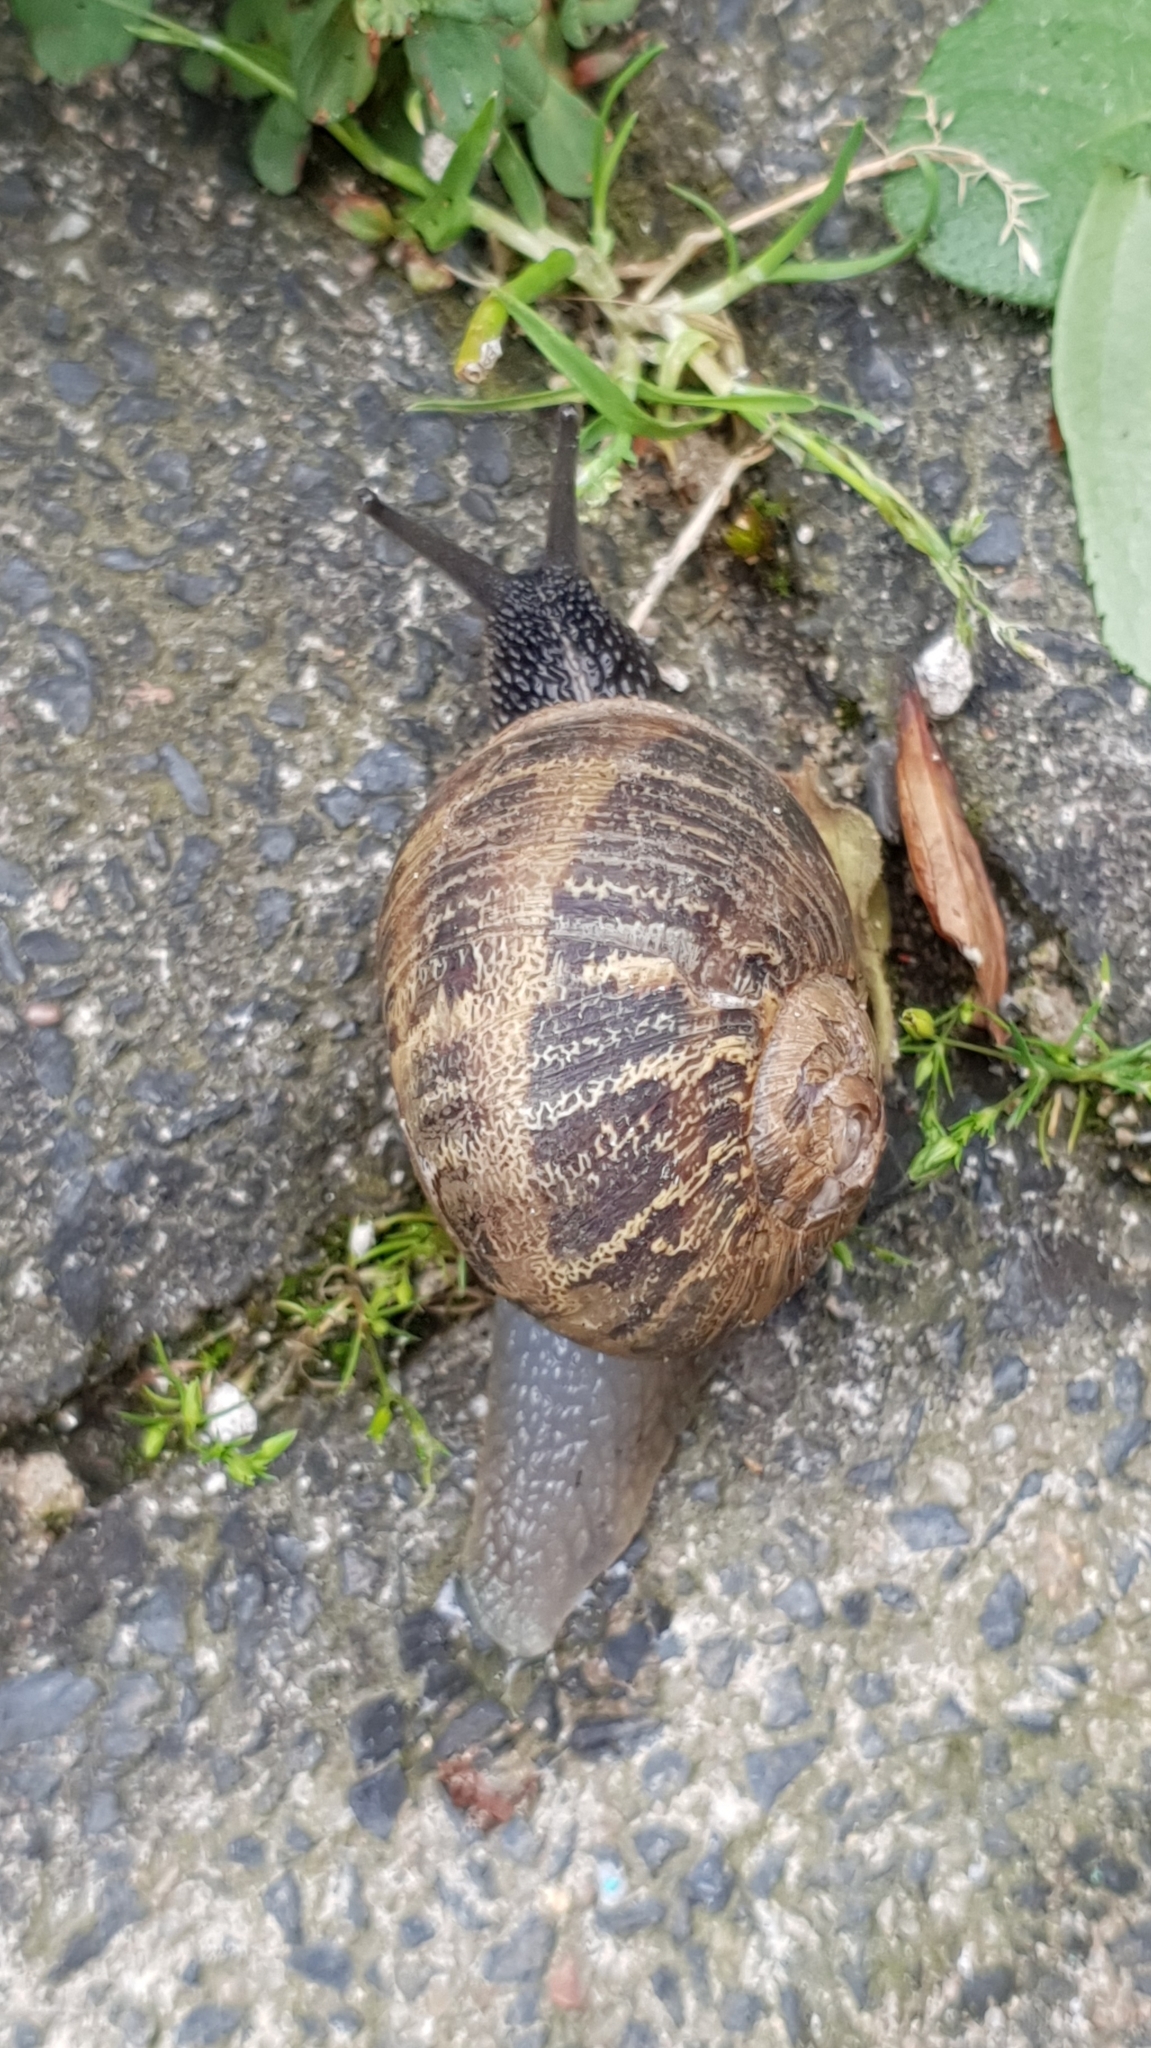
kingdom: Animalia
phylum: Mollusca
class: Gastropoda
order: Stylommatophora
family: Helicidae
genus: Cornu
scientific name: Cornu aspersum
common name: Brown garden snail
